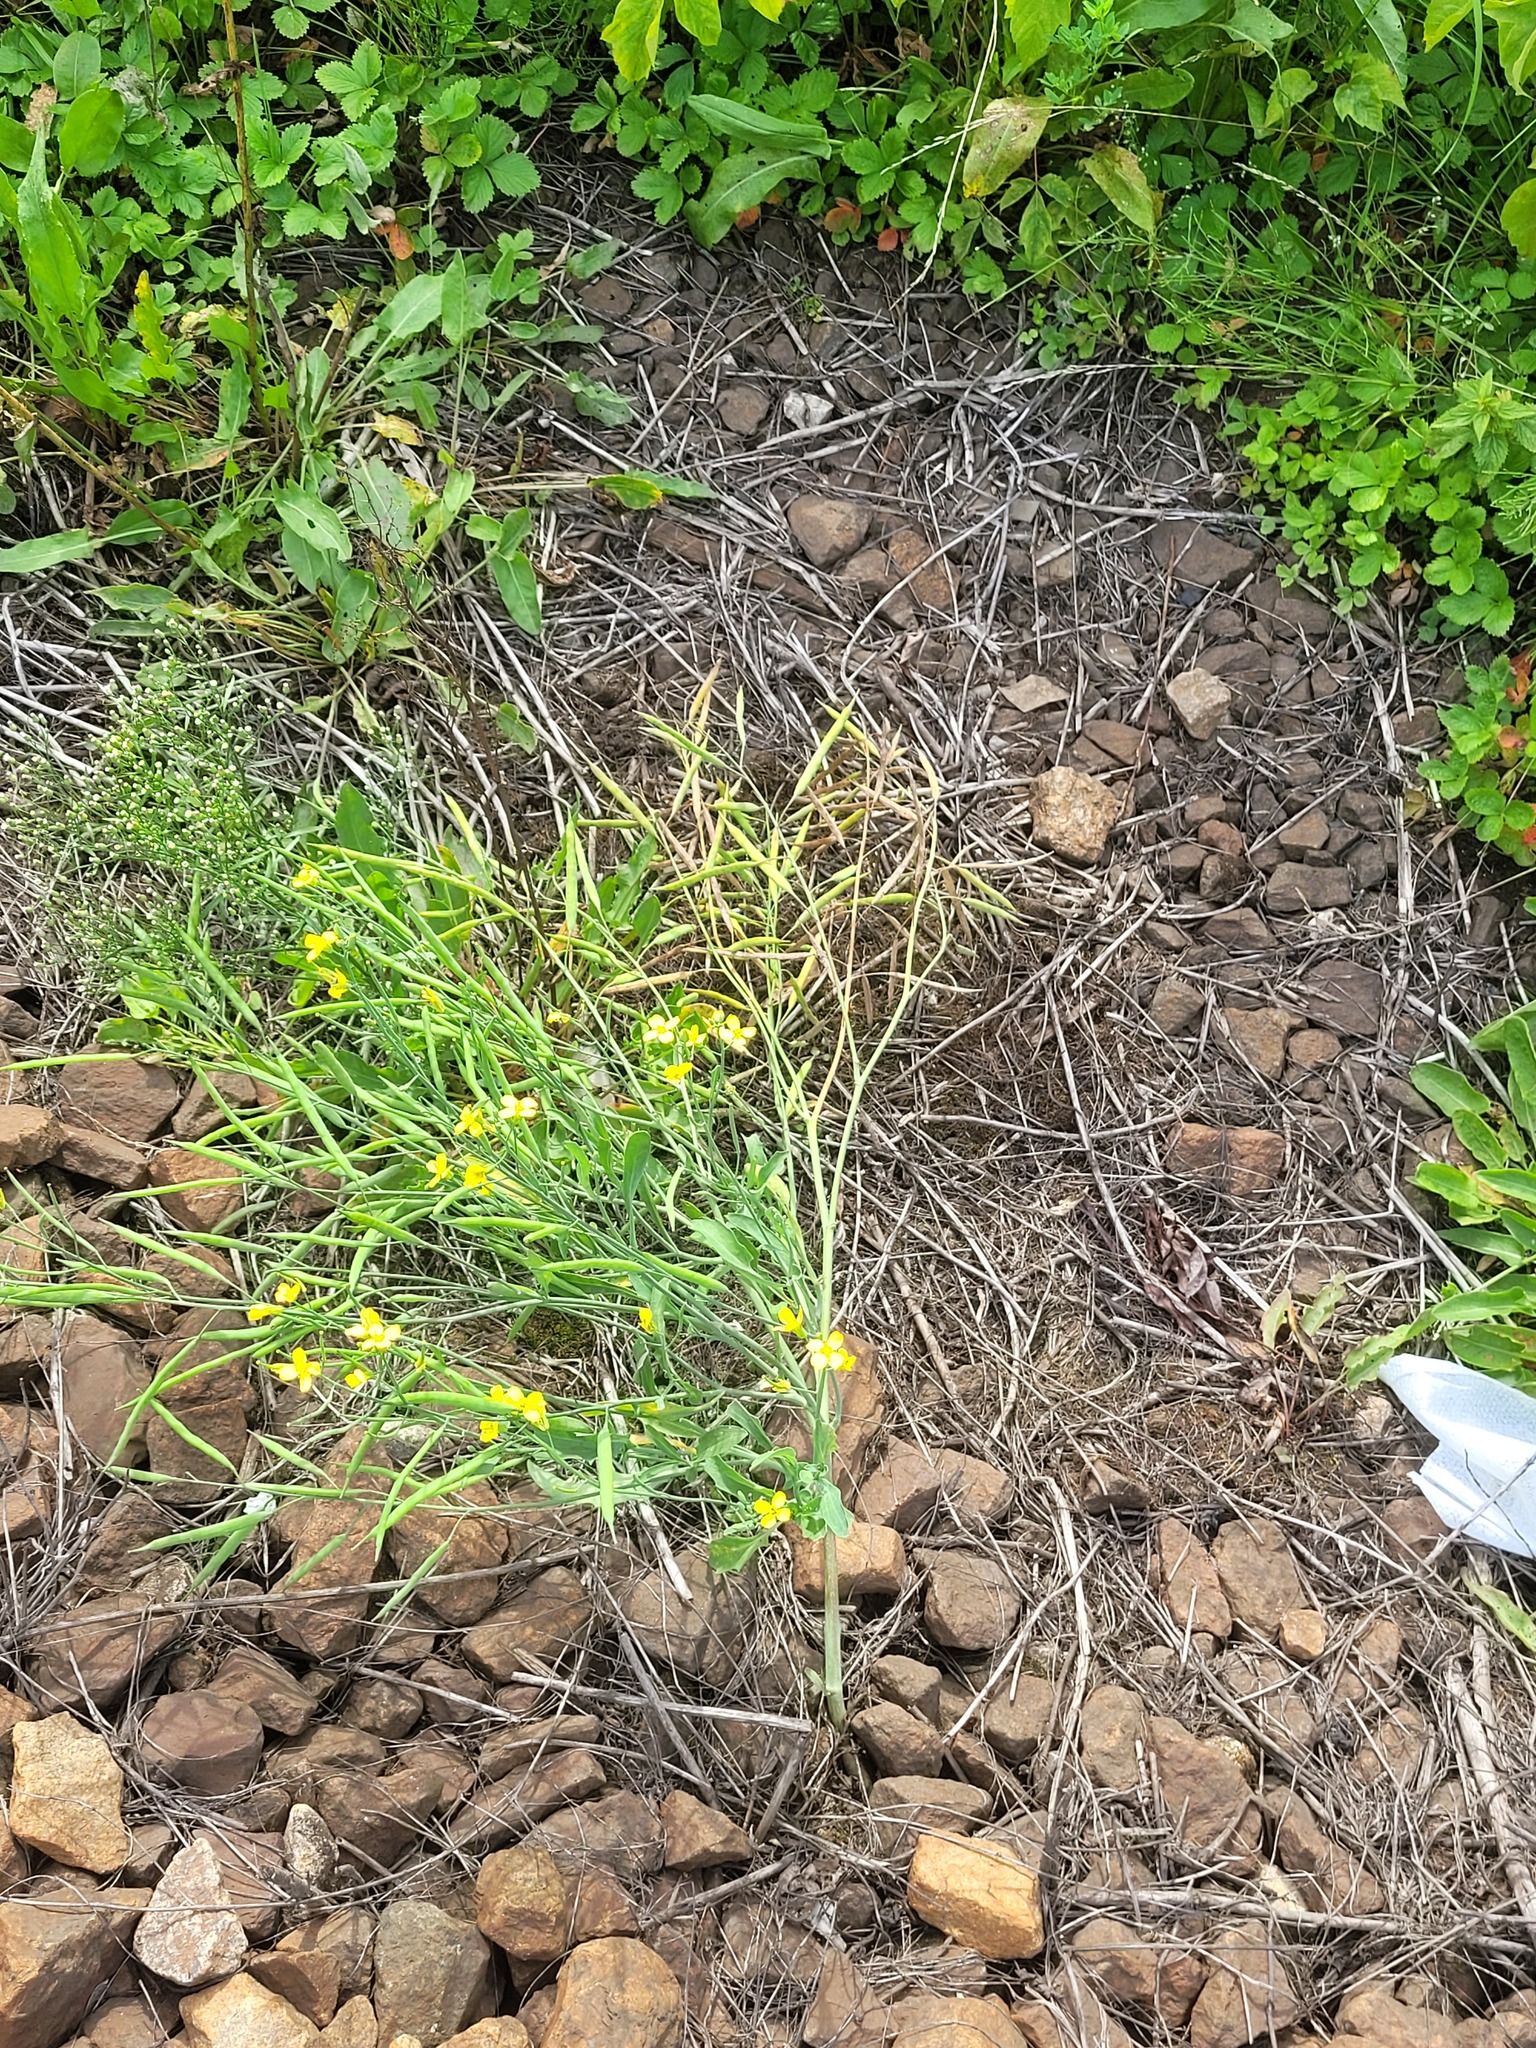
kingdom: Plantae
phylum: Tracheophyta
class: Magnoliopsida
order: Brassicales
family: Brassicaceae
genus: Brassica
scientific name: Brassica napus
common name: Rape
